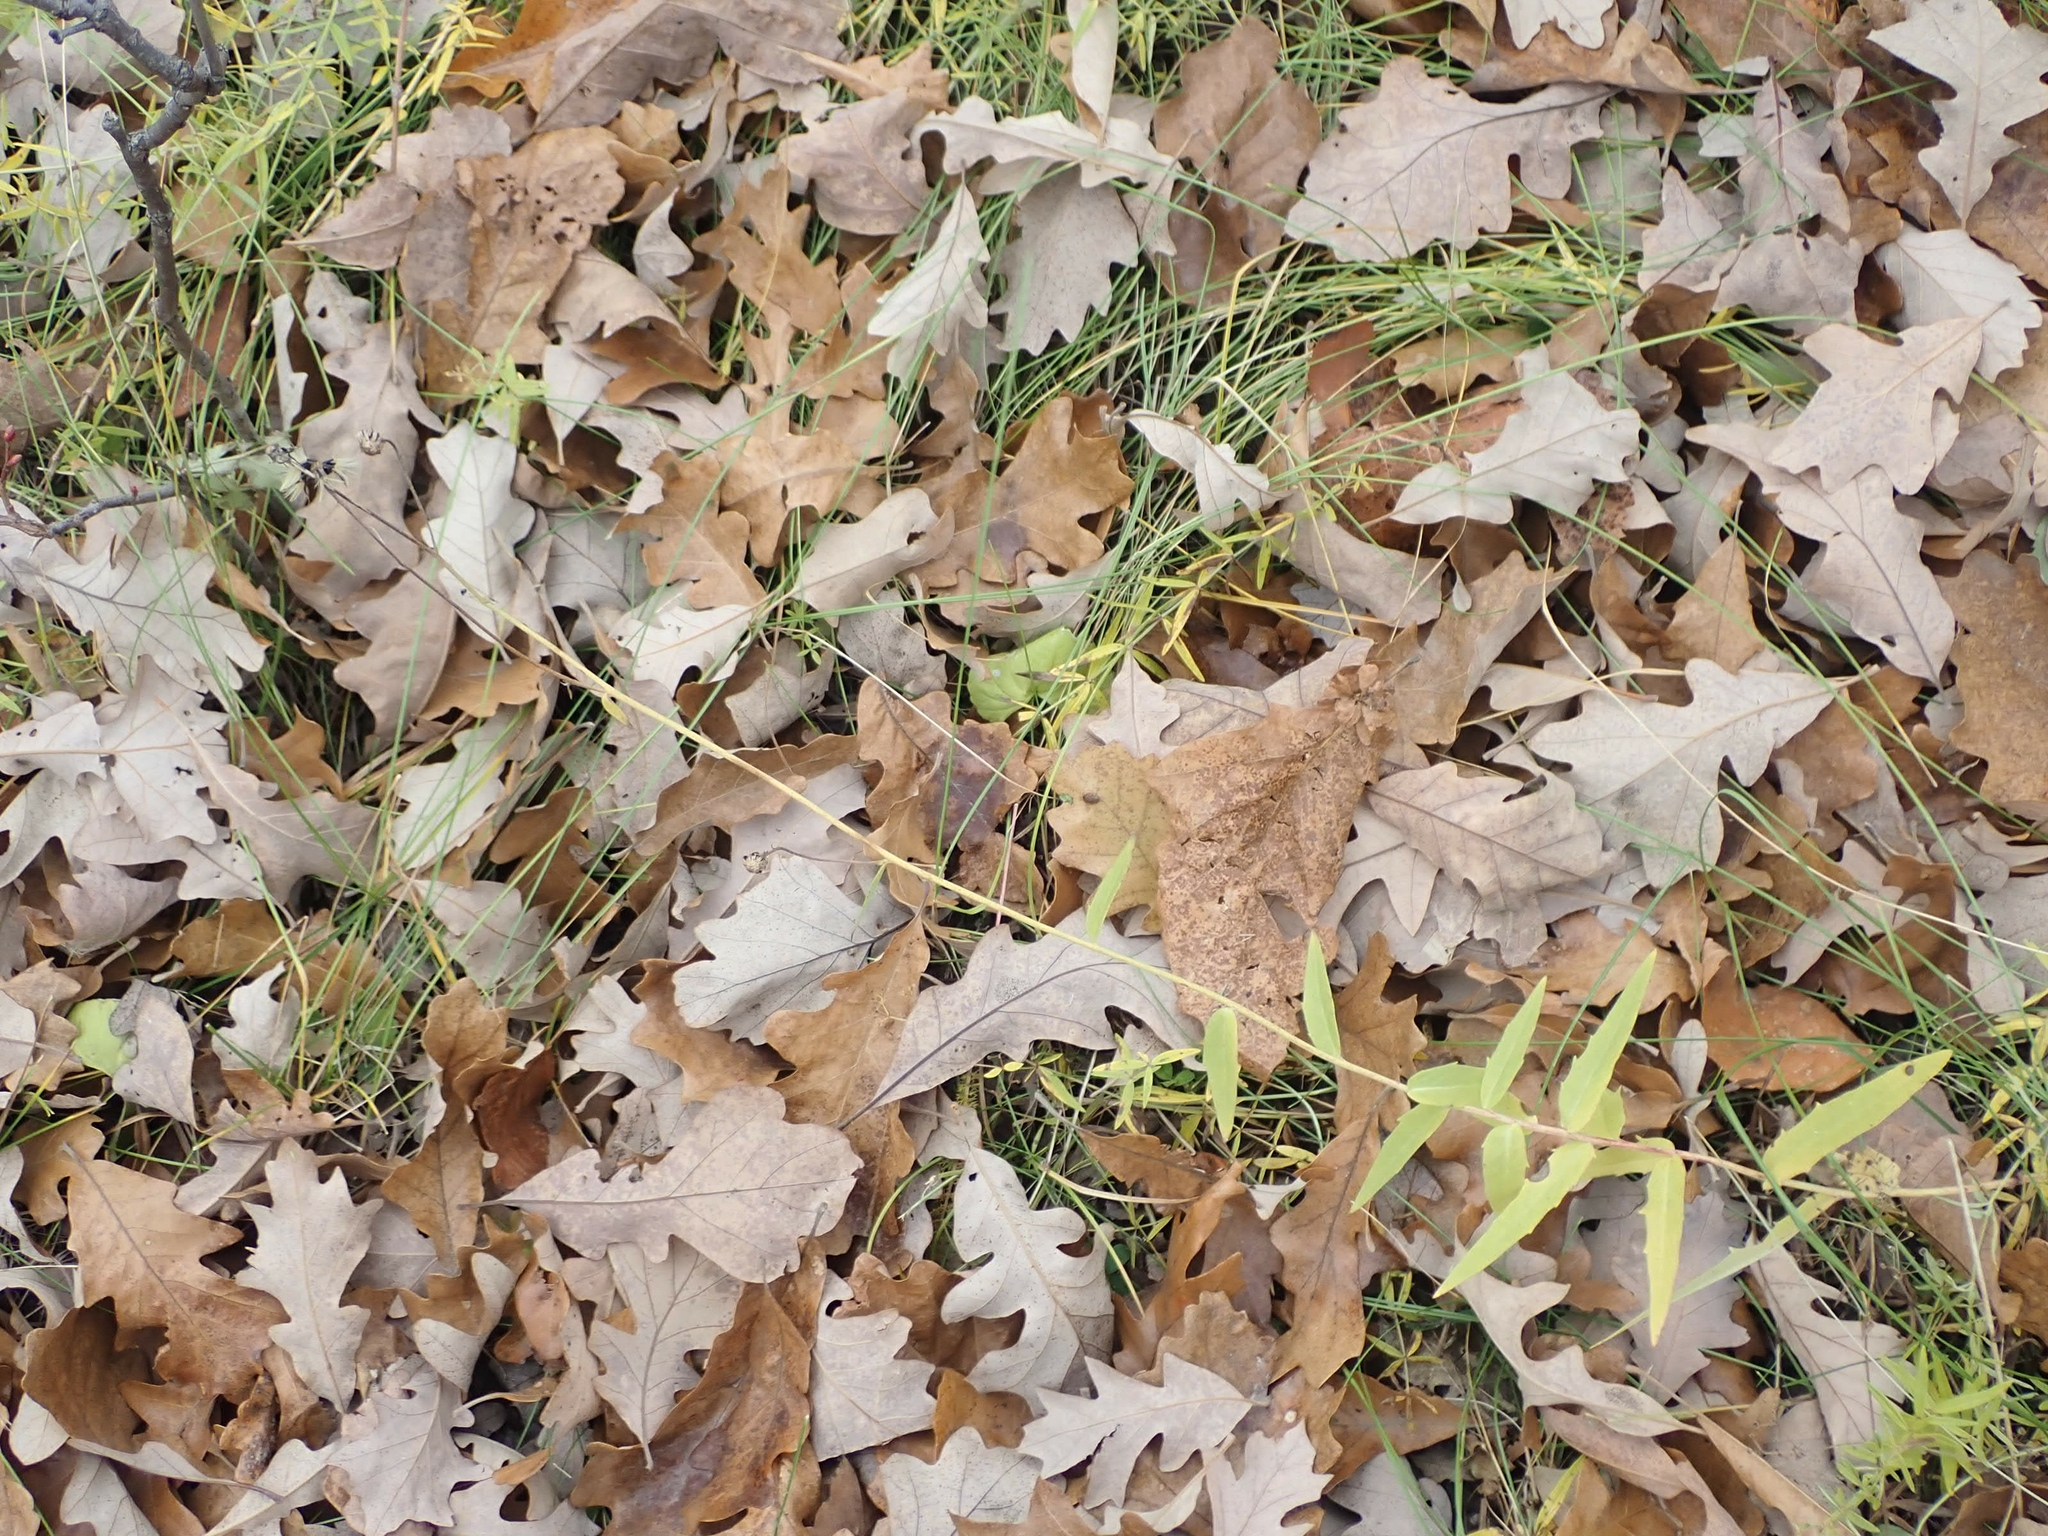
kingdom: Plantae
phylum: Tracheophyta
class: Magnoliopsida
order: Asterales
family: Asteraceae
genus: Hieracium
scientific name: Hieracium umbellatum
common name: Northern hawkweed
